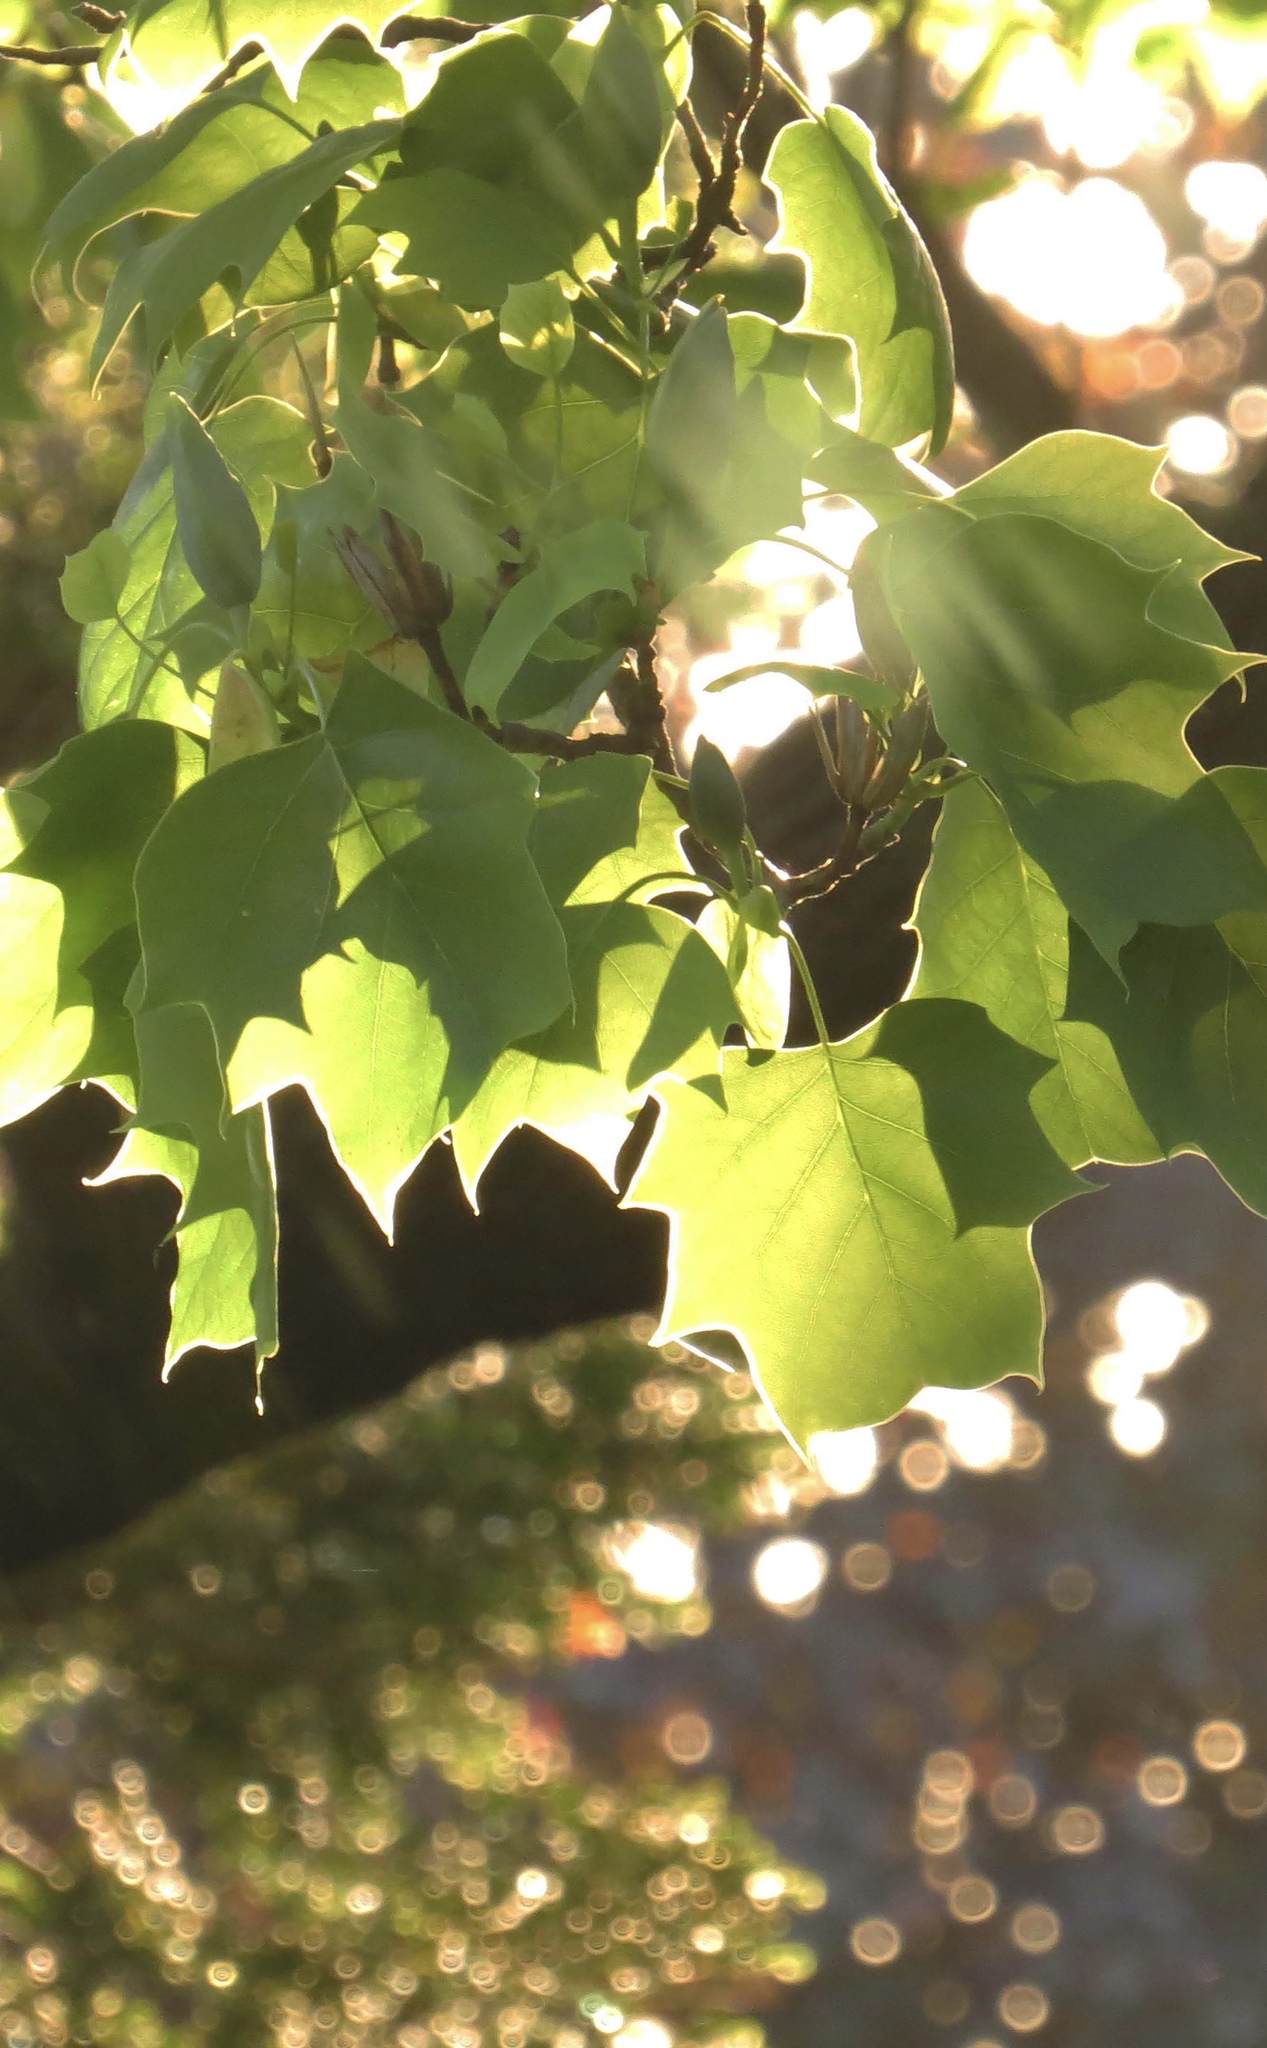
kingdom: Plantae
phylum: Tracheophyta
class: Magnoliopsida
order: Magnoliales
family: Magnoliaceae
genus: Liriodendron
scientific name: Liriodendron tulipifera
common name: Tulip tree
